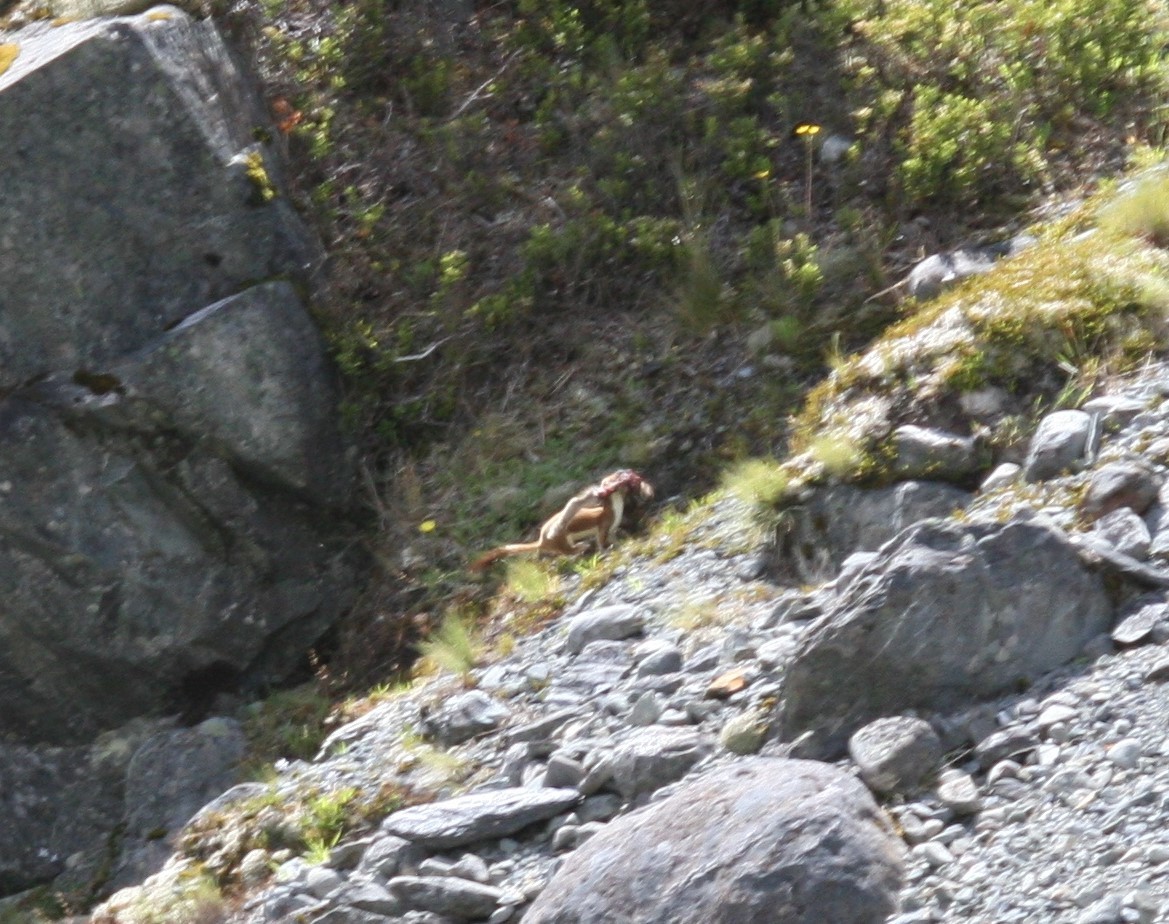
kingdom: Animalia
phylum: Chordata
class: Mammalia
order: Carnivora
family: Mustelidae
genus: Mustela
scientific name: Mustela erminea
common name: Stoat
